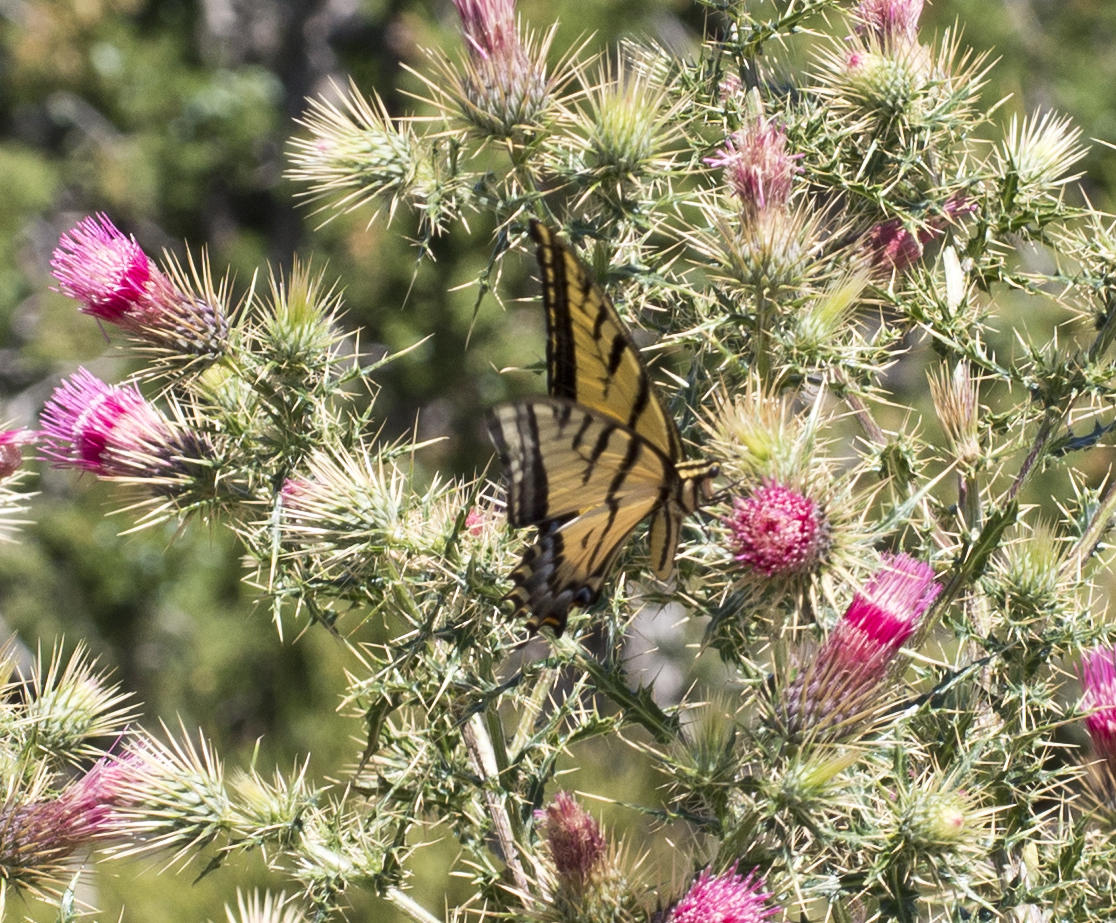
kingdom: Animalia
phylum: Arthropoda
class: Insecta
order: Lepidoptera
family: Papilionidae
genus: Papilio
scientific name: Papilio multicaudata
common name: Two-tailed tiger swallowtail
